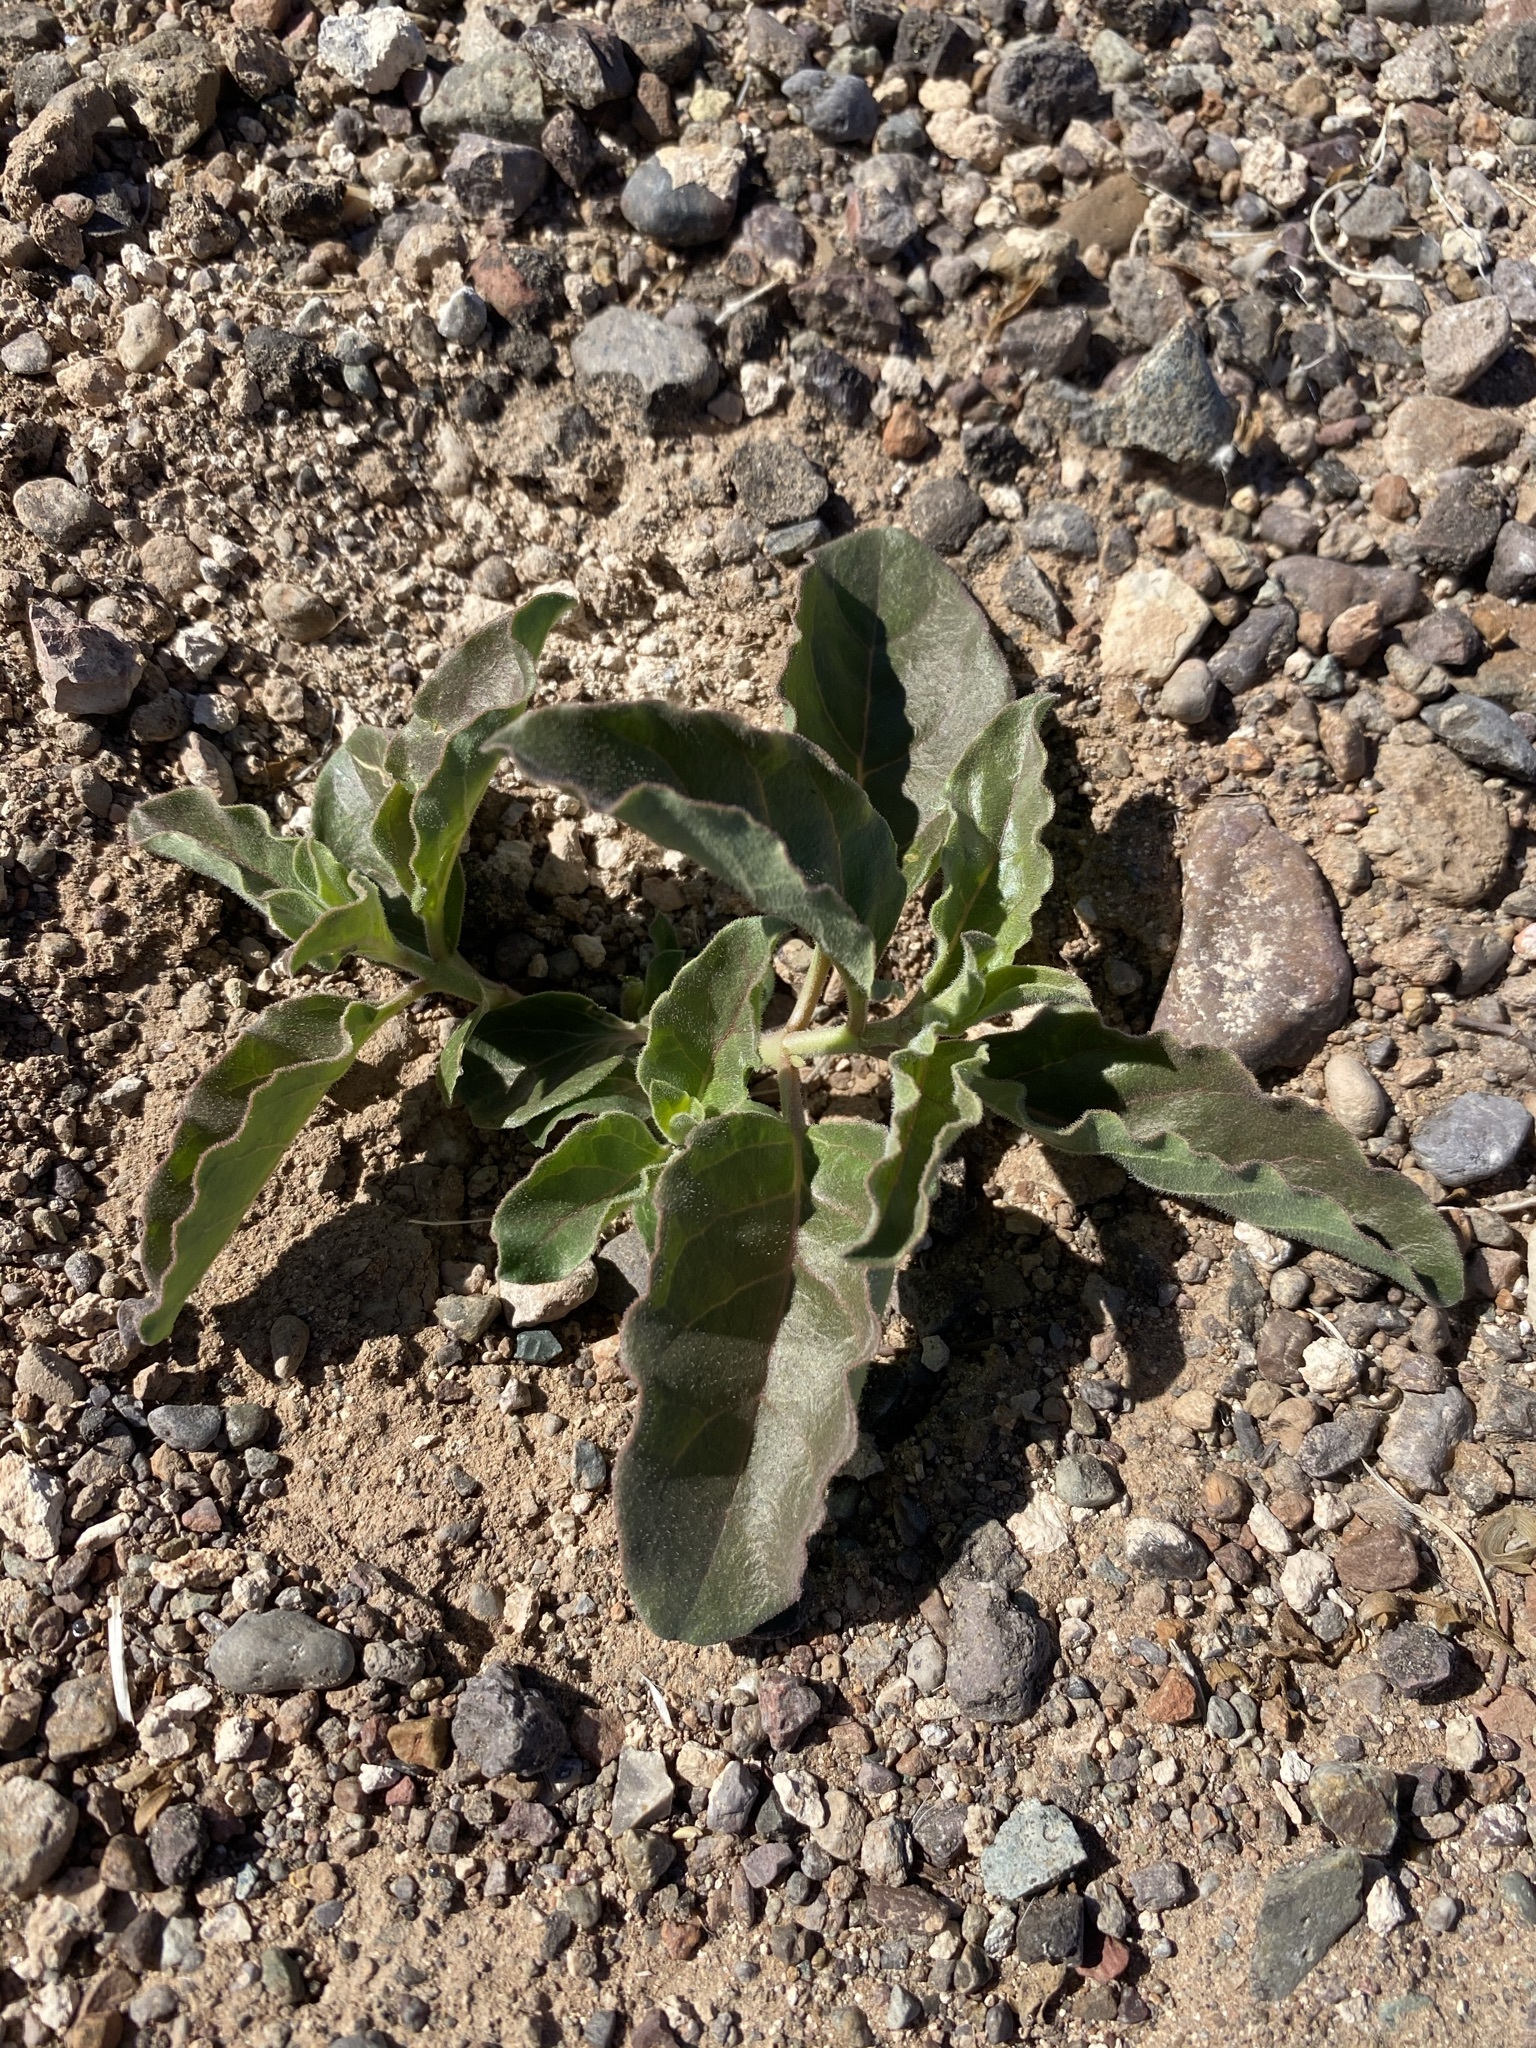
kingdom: Plantae
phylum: Tracheophyta
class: Magnoliopsida
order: Gentianales
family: Apocynaceae
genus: Asclepias
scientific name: Asclepias oenotheroides
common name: Zizotes milkweed
